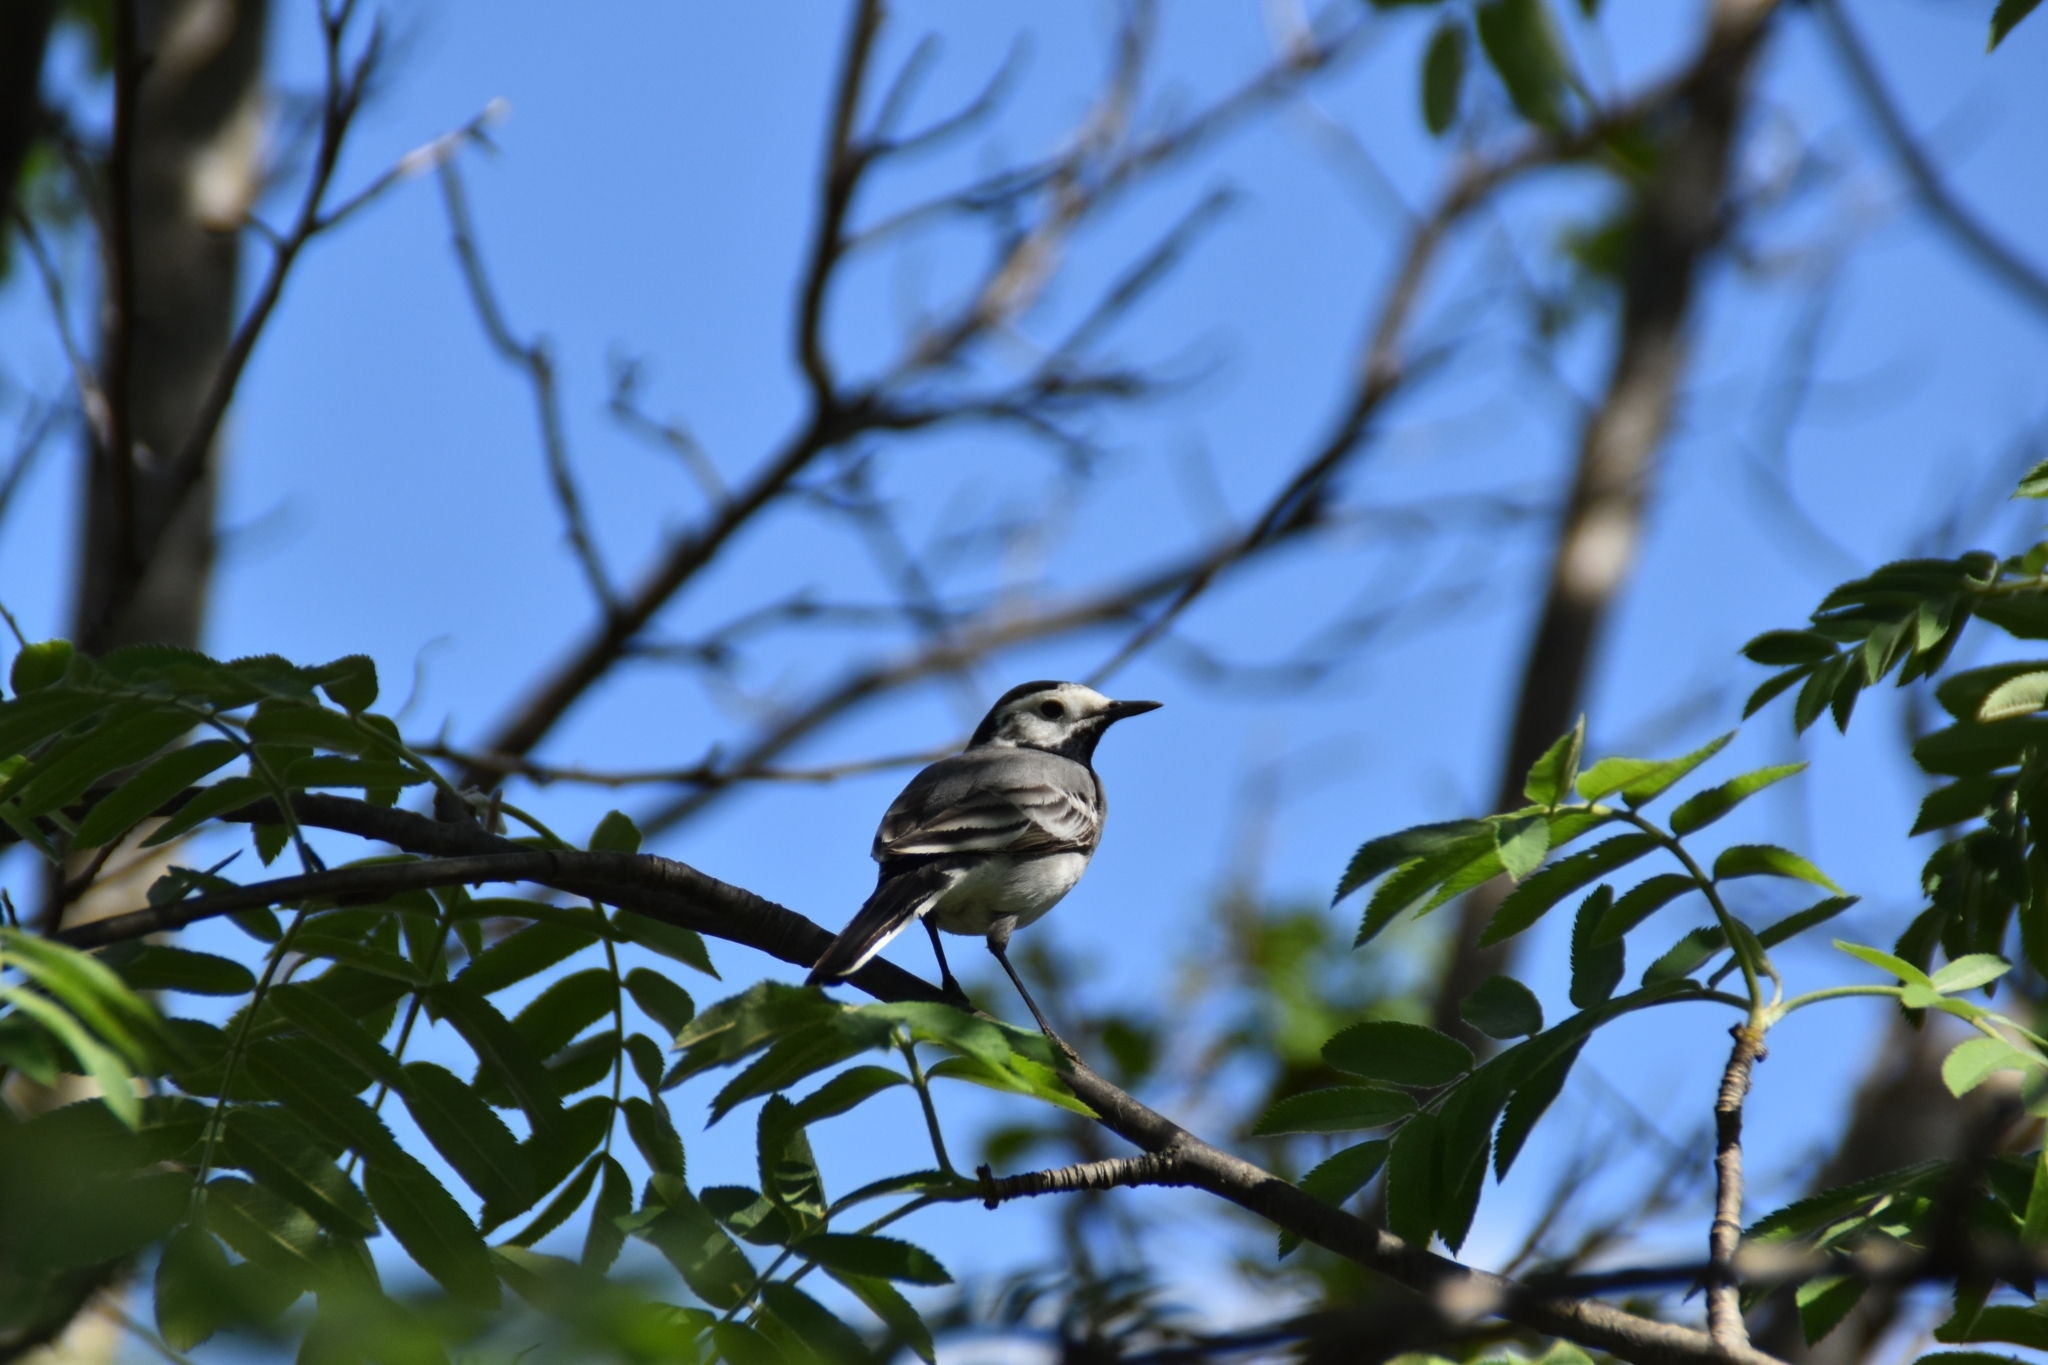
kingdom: Animalia
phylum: Chordata
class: Aves
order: Passeriformes
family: Motacillidae
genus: Motacilla
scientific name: Motacilla alba
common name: White wagtail
